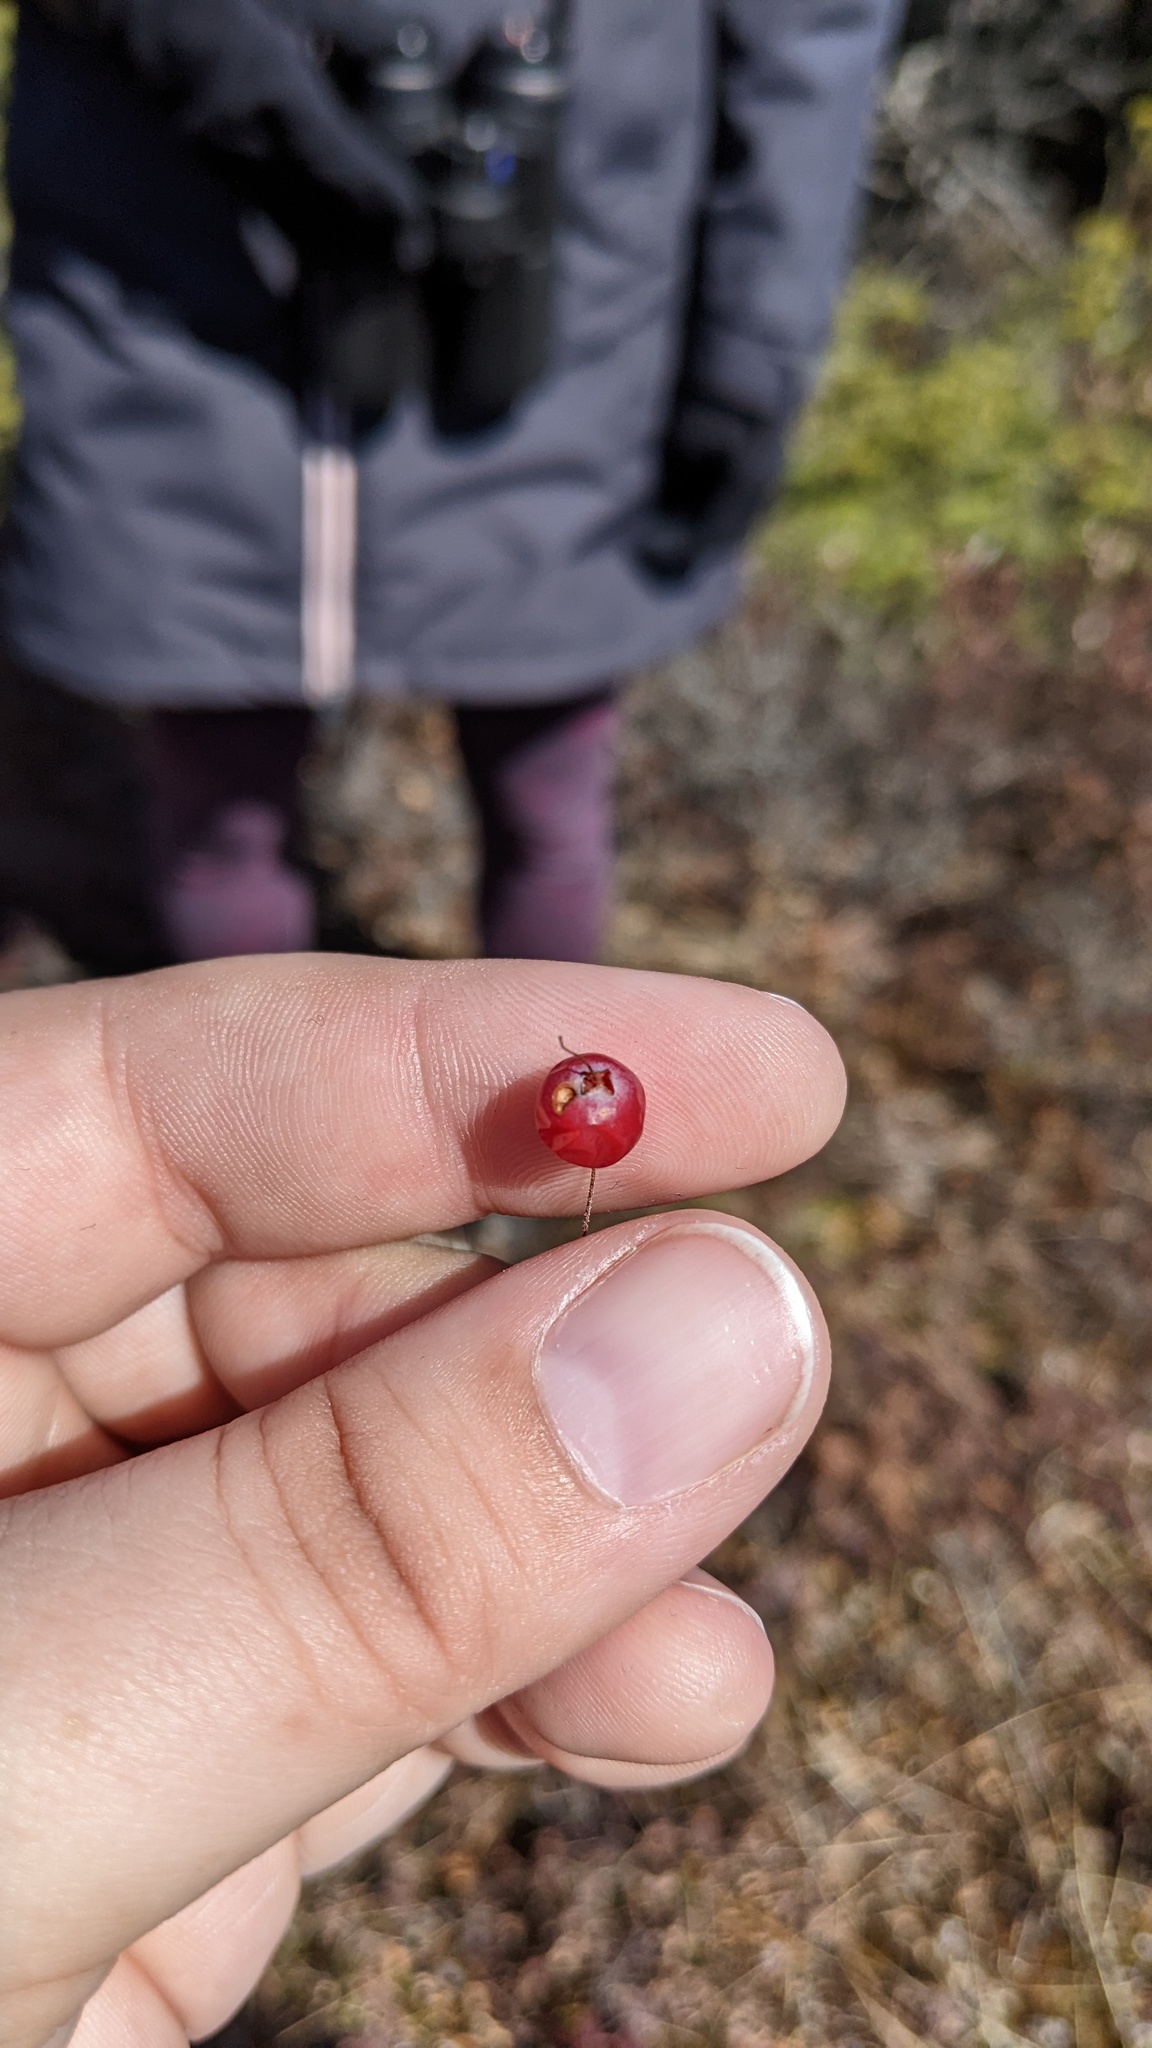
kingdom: Plantae
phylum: Tracheophyta
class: Magnoliopsida
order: Ericales
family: Ericaceae
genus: Vaccinium
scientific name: Vaccinium oxycoccos
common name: Cranberry
